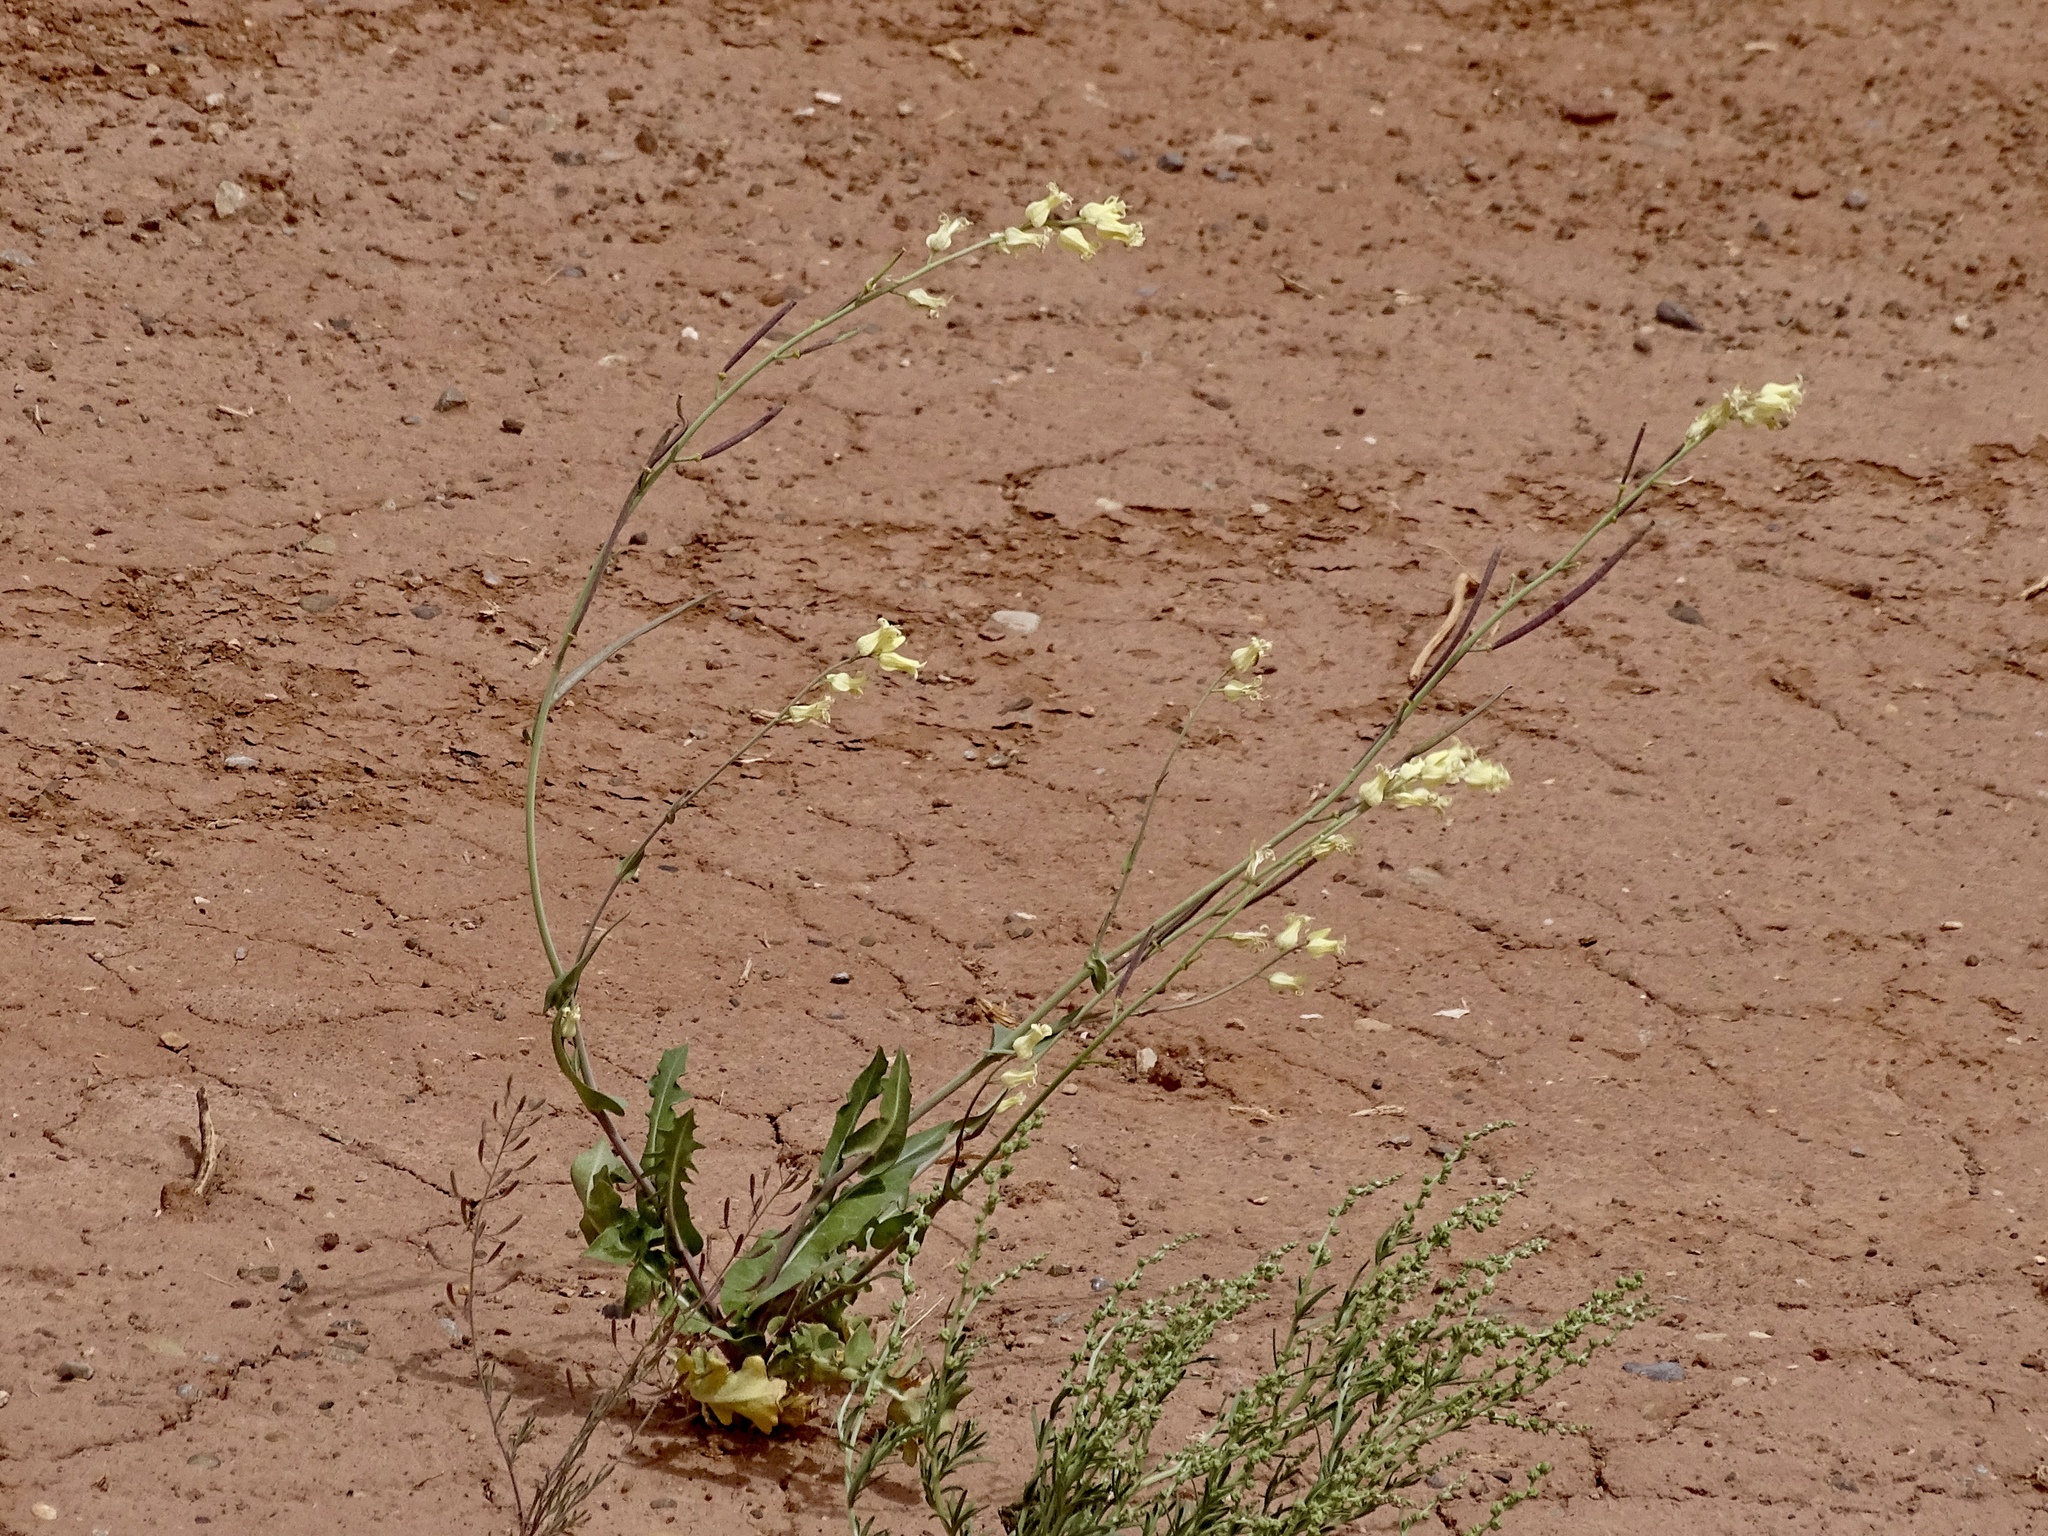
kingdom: Plantae
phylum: Tracheophyta
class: Magnoliopsida
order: Brassicales
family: Brassicaceae
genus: Streptanthus
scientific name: Streptanthus carinatus
